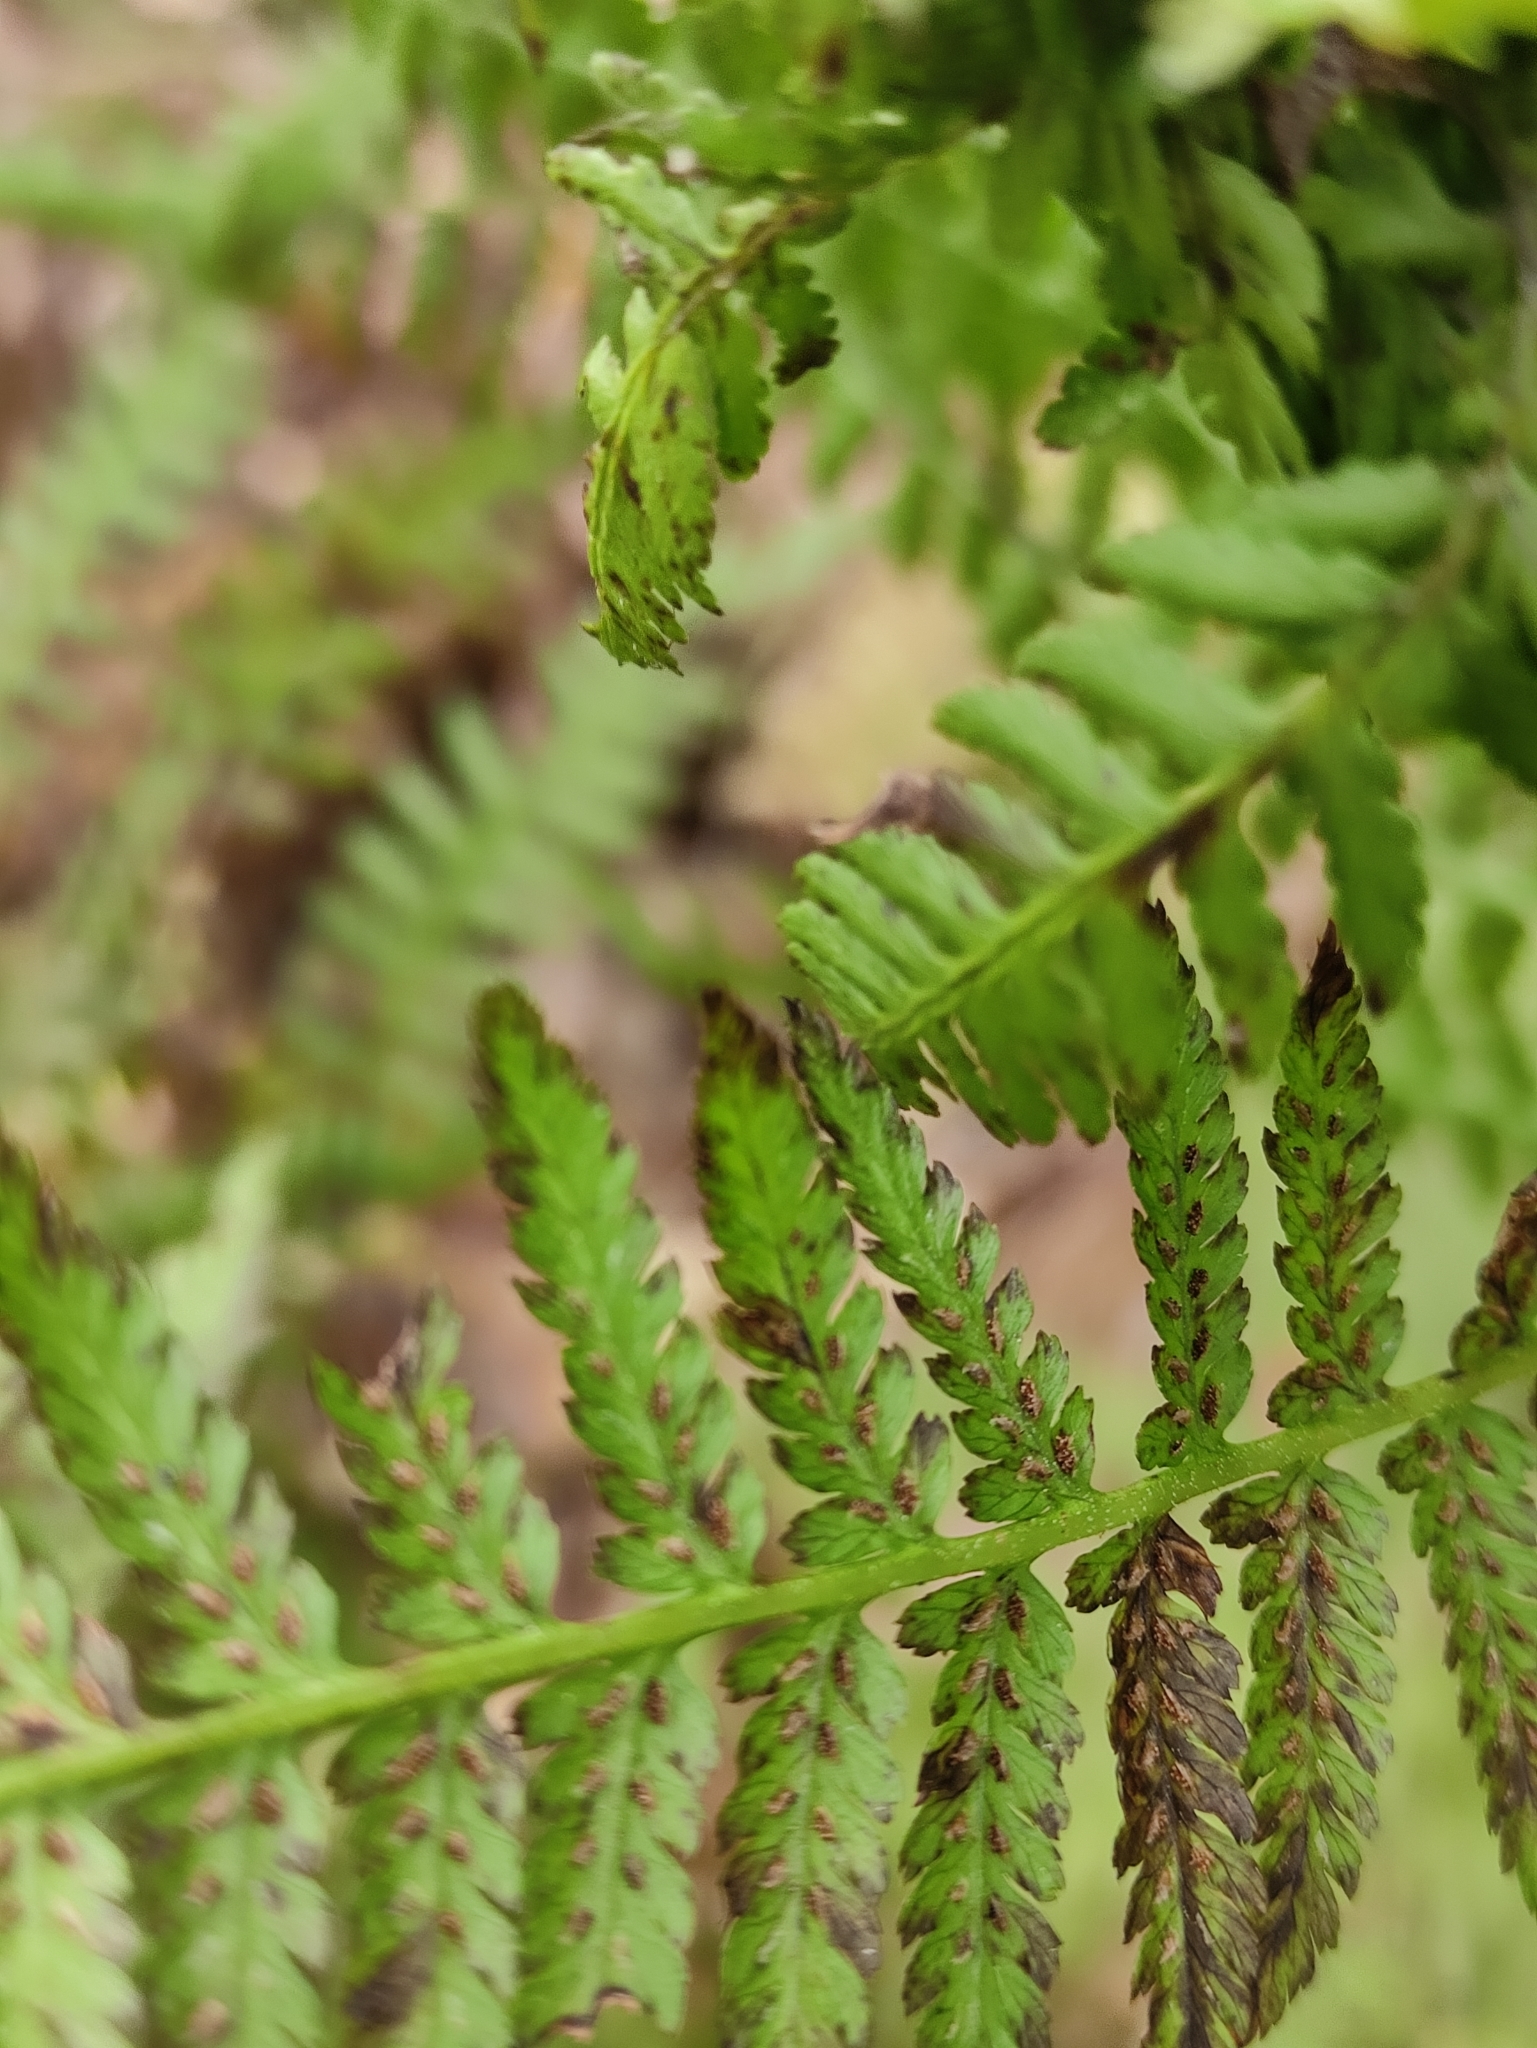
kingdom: Plantae
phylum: Tracheophyta
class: Polypodiopsida
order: Polypodiales
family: Athyriaceae
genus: Athyrium
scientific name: Athyrium filix-femina
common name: Lady fern
